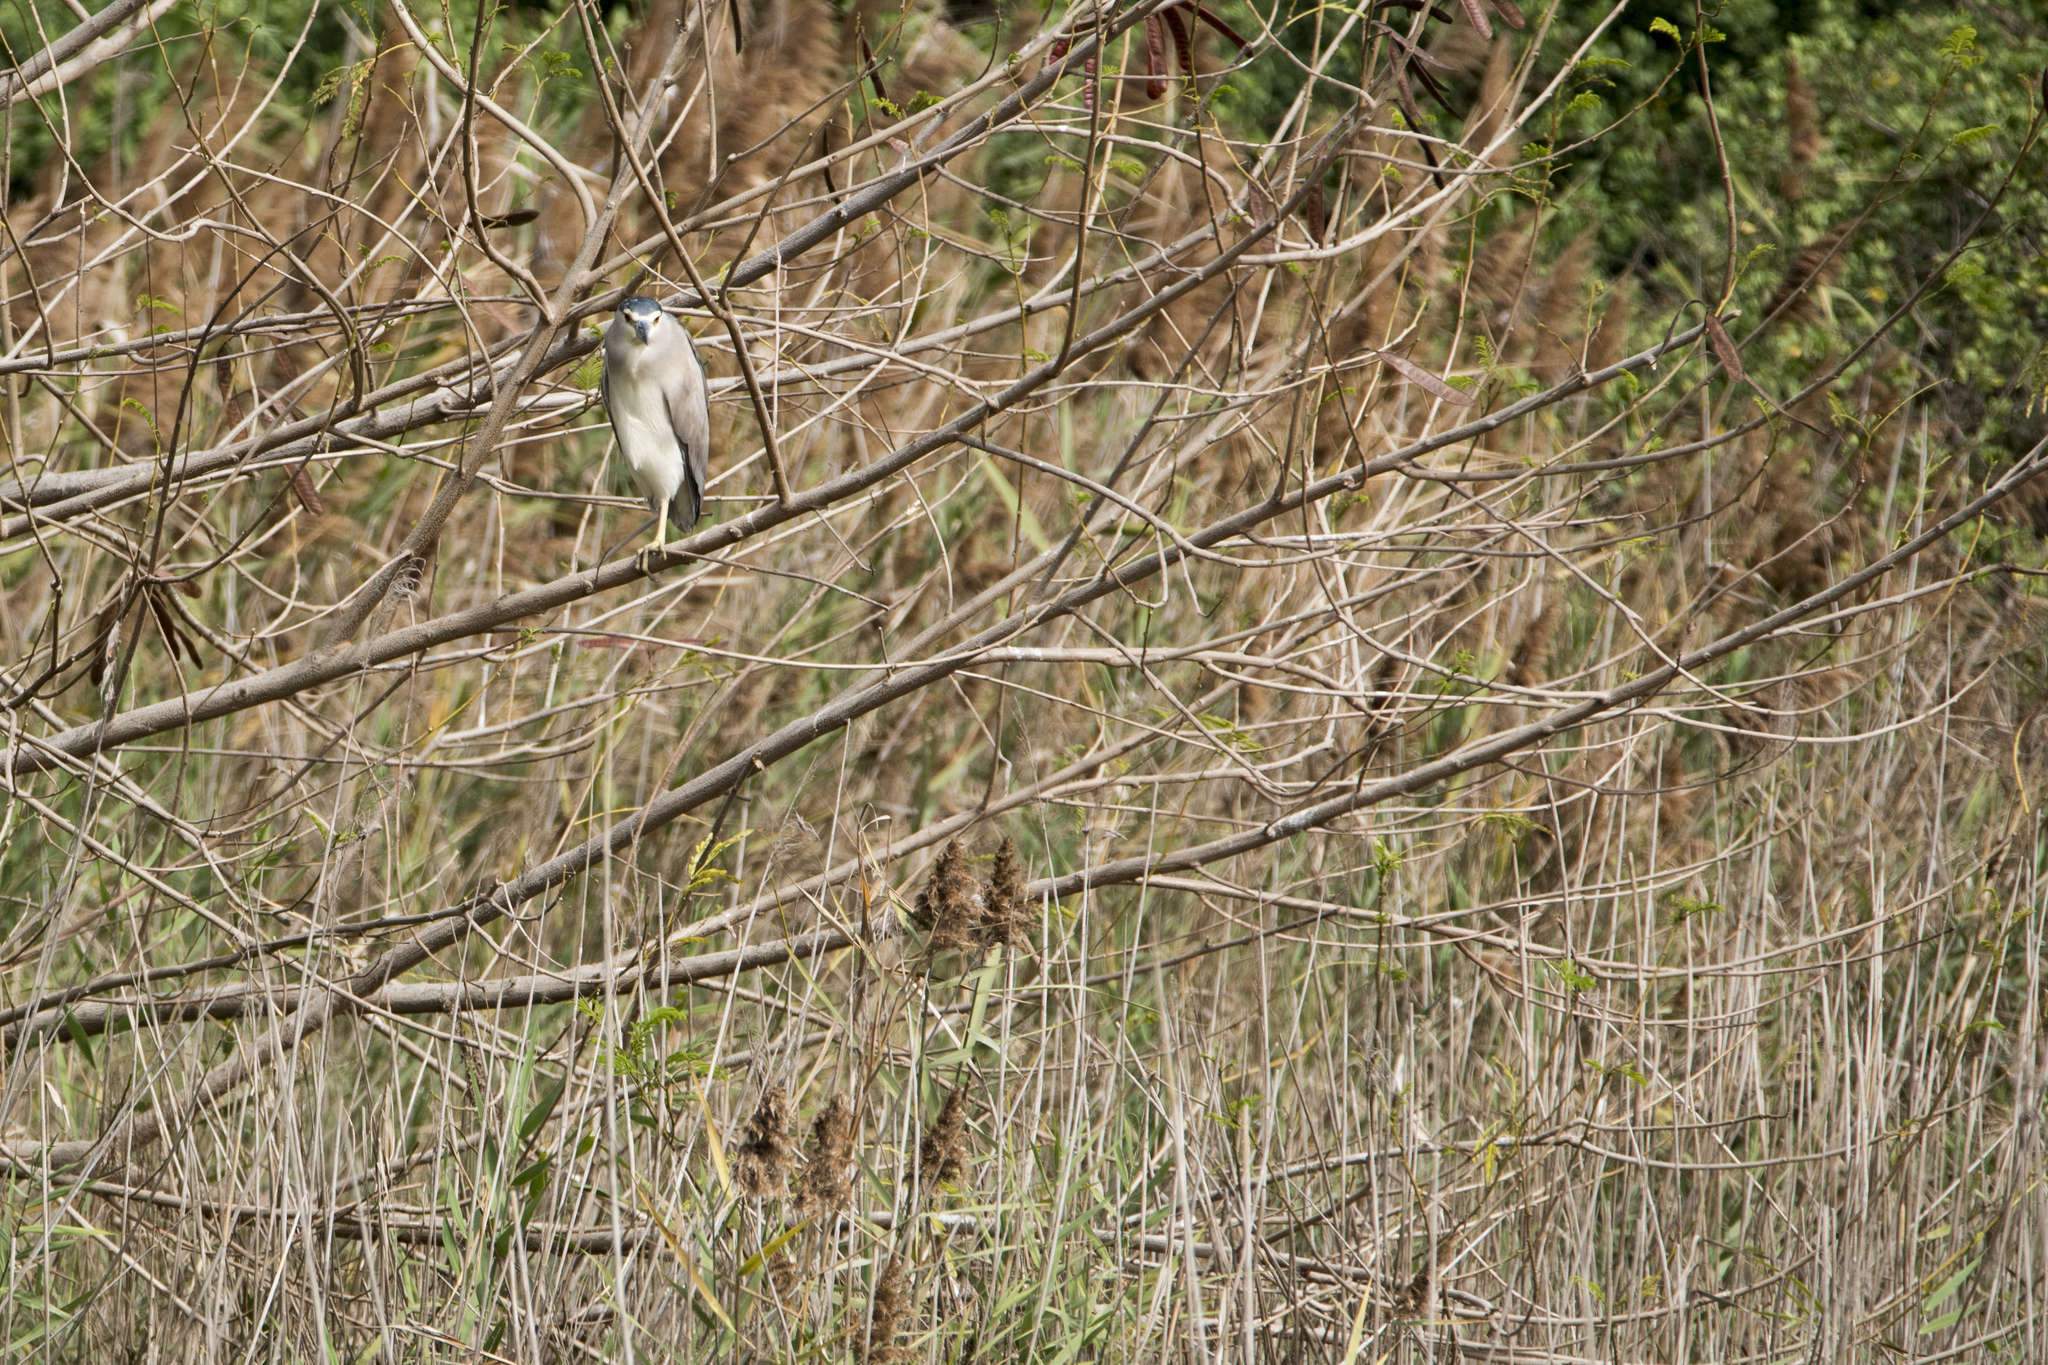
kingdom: Animalia
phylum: Chordata
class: Aves
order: Pelecaniformes
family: Ardeidae
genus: Nycticorax
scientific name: Nycticorax nycticorax
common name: Black-crowned night heron
